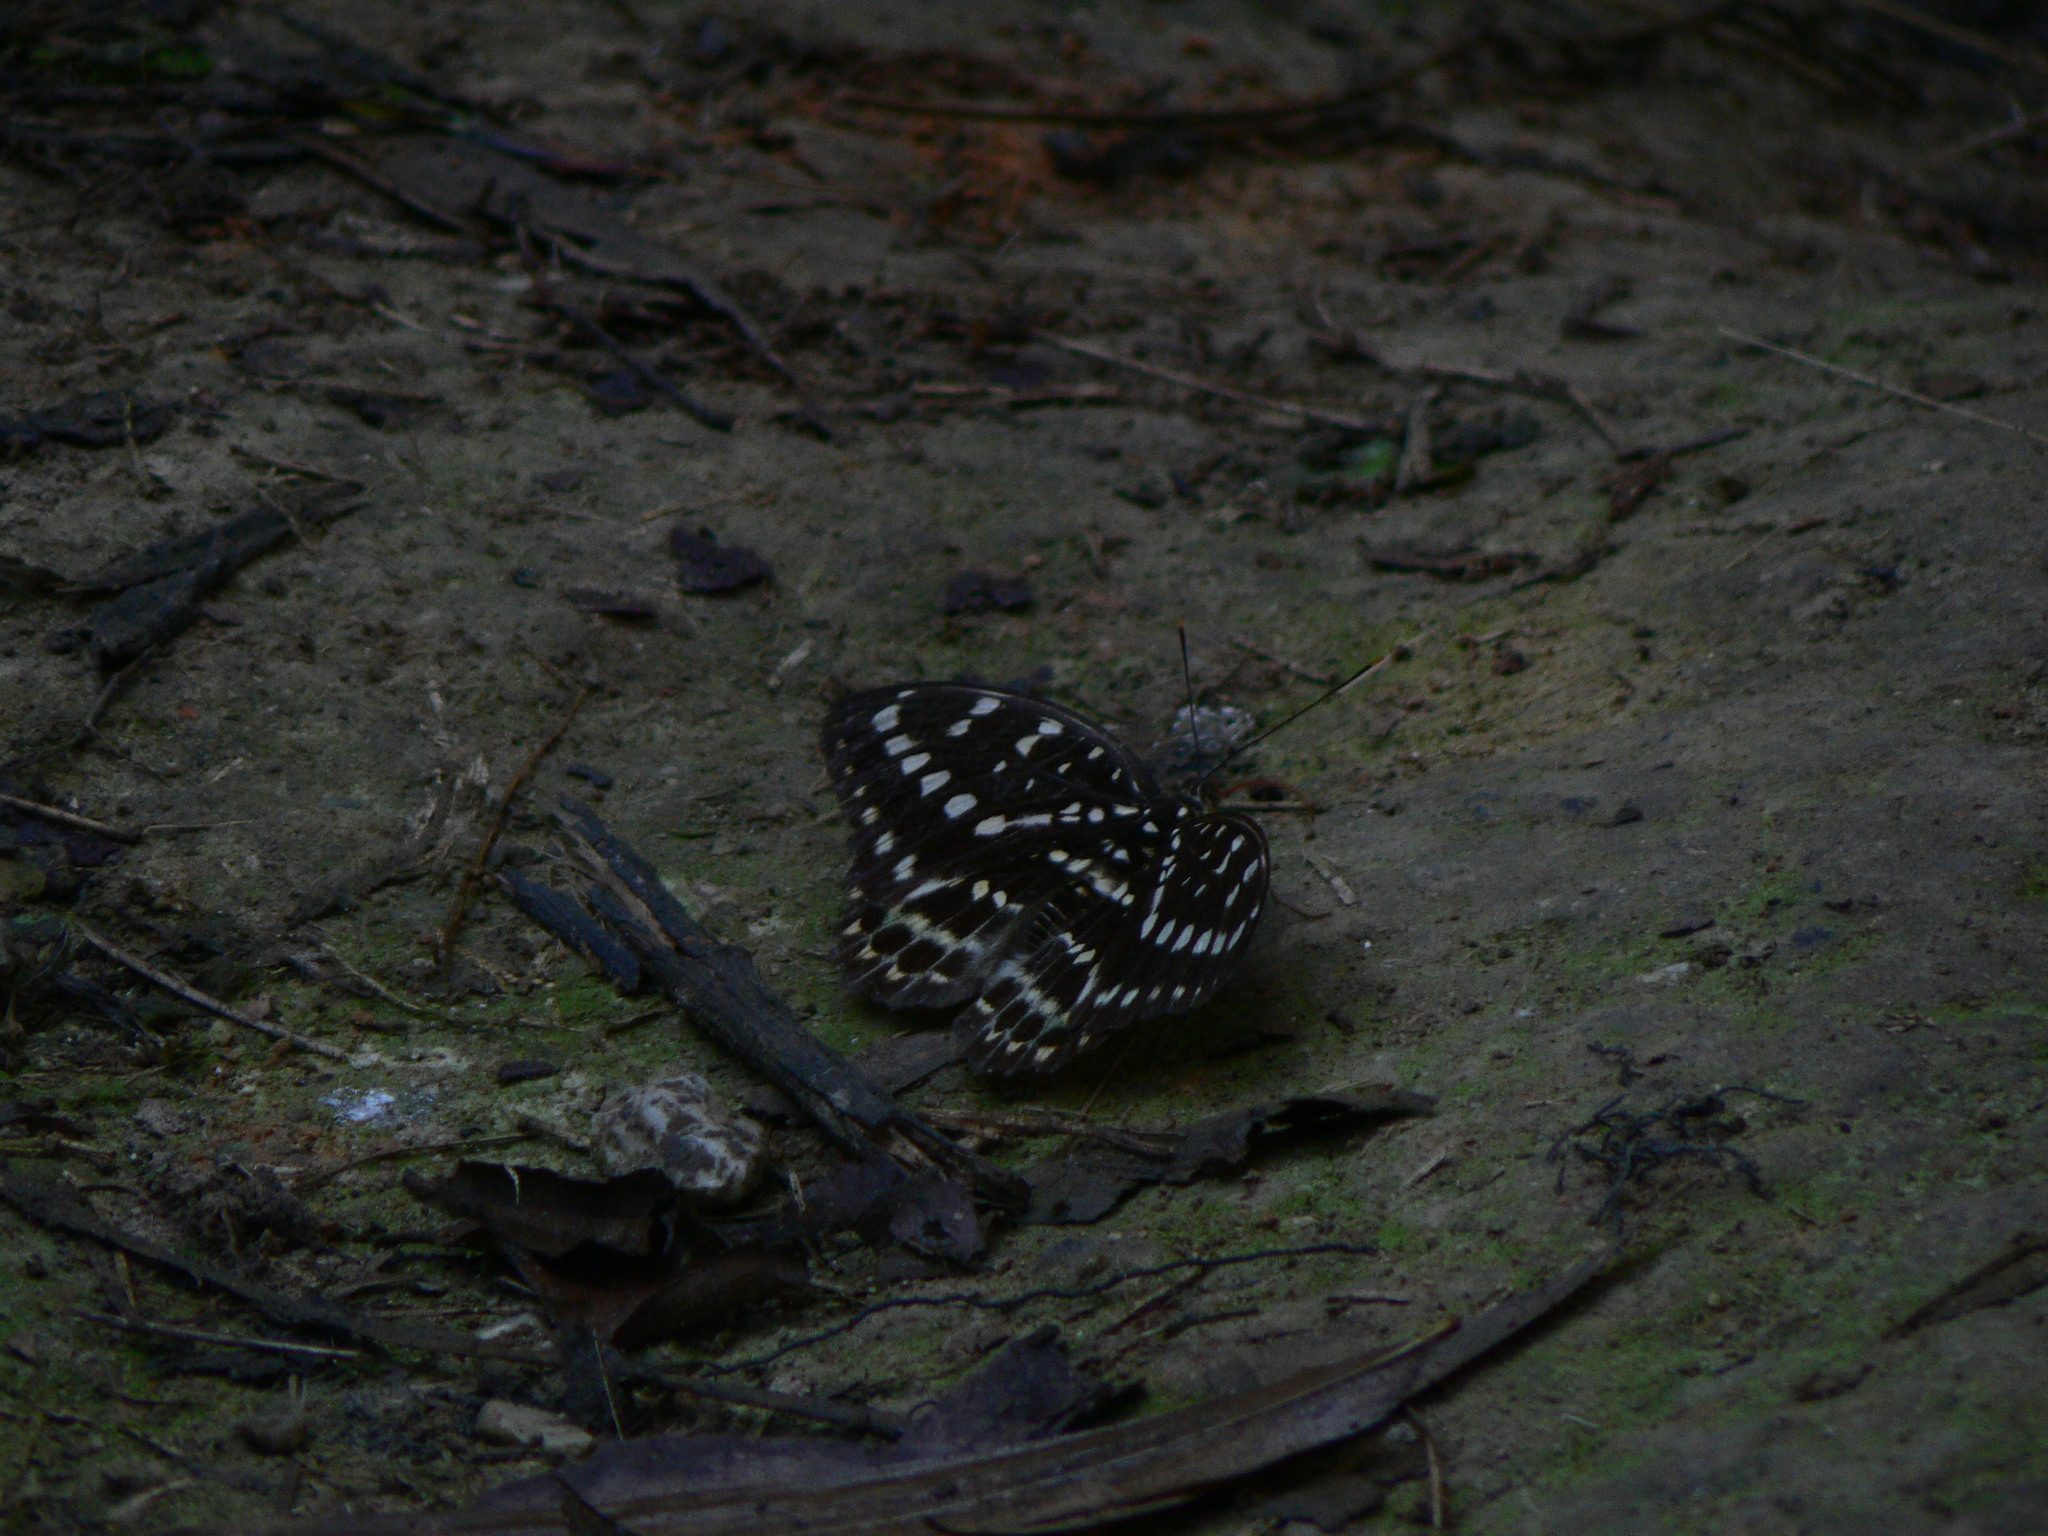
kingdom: Animalia
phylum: Arthropoda
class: Insecta
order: Lepidoptera
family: Nymphalidae
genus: Lexias
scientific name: Lexias pardalis
